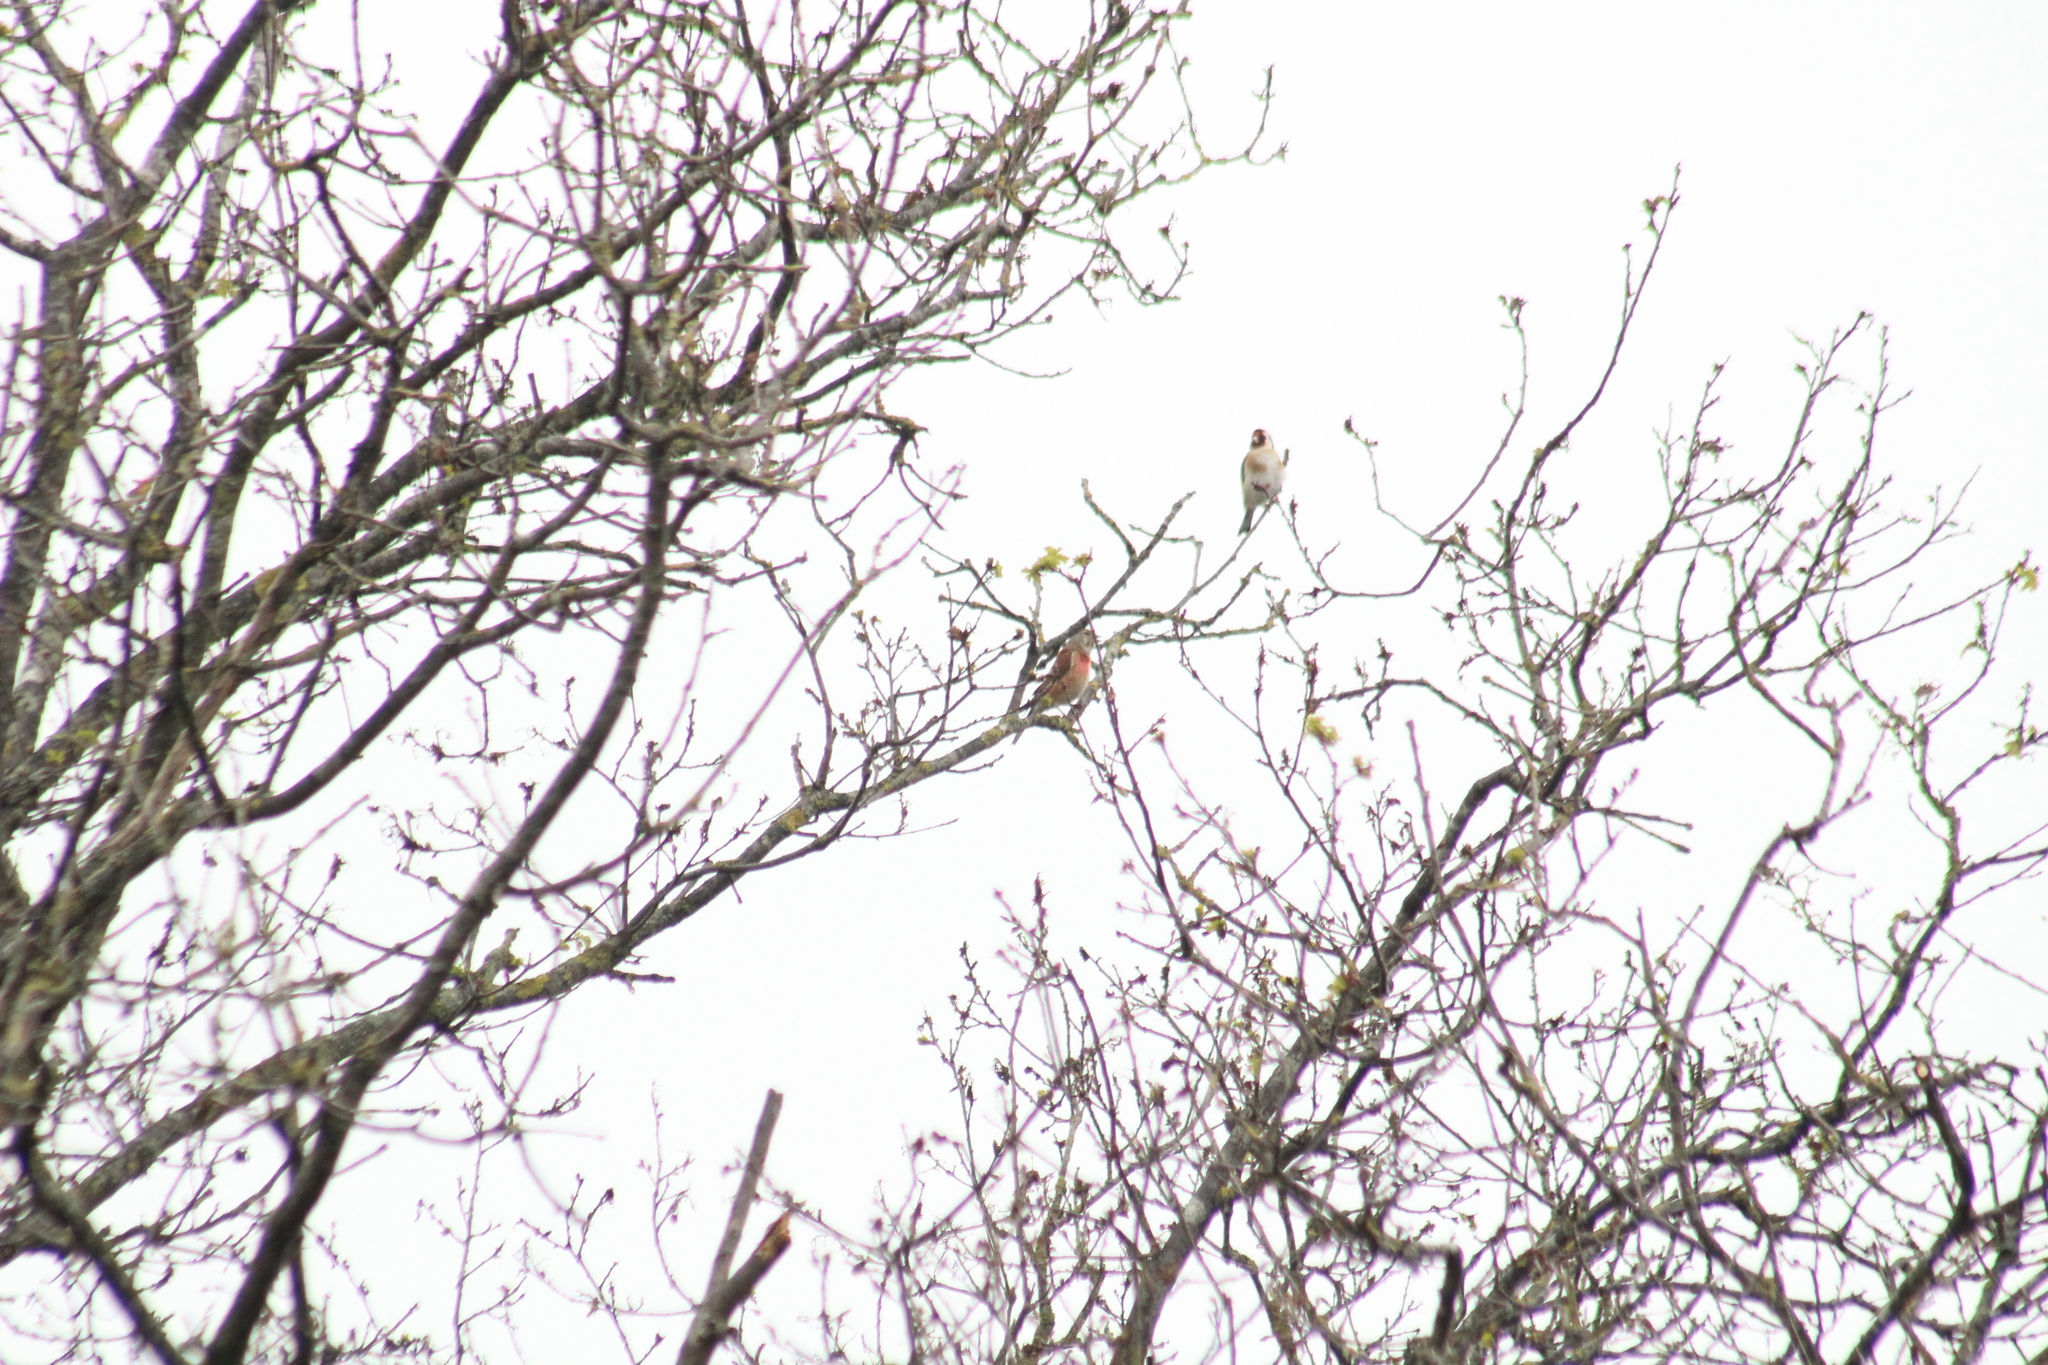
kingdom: Animalia
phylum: Chordata
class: Aves
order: Passeriformes
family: Fringillidae
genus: Linaria
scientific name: Linaria cannabina
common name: Common linnet
